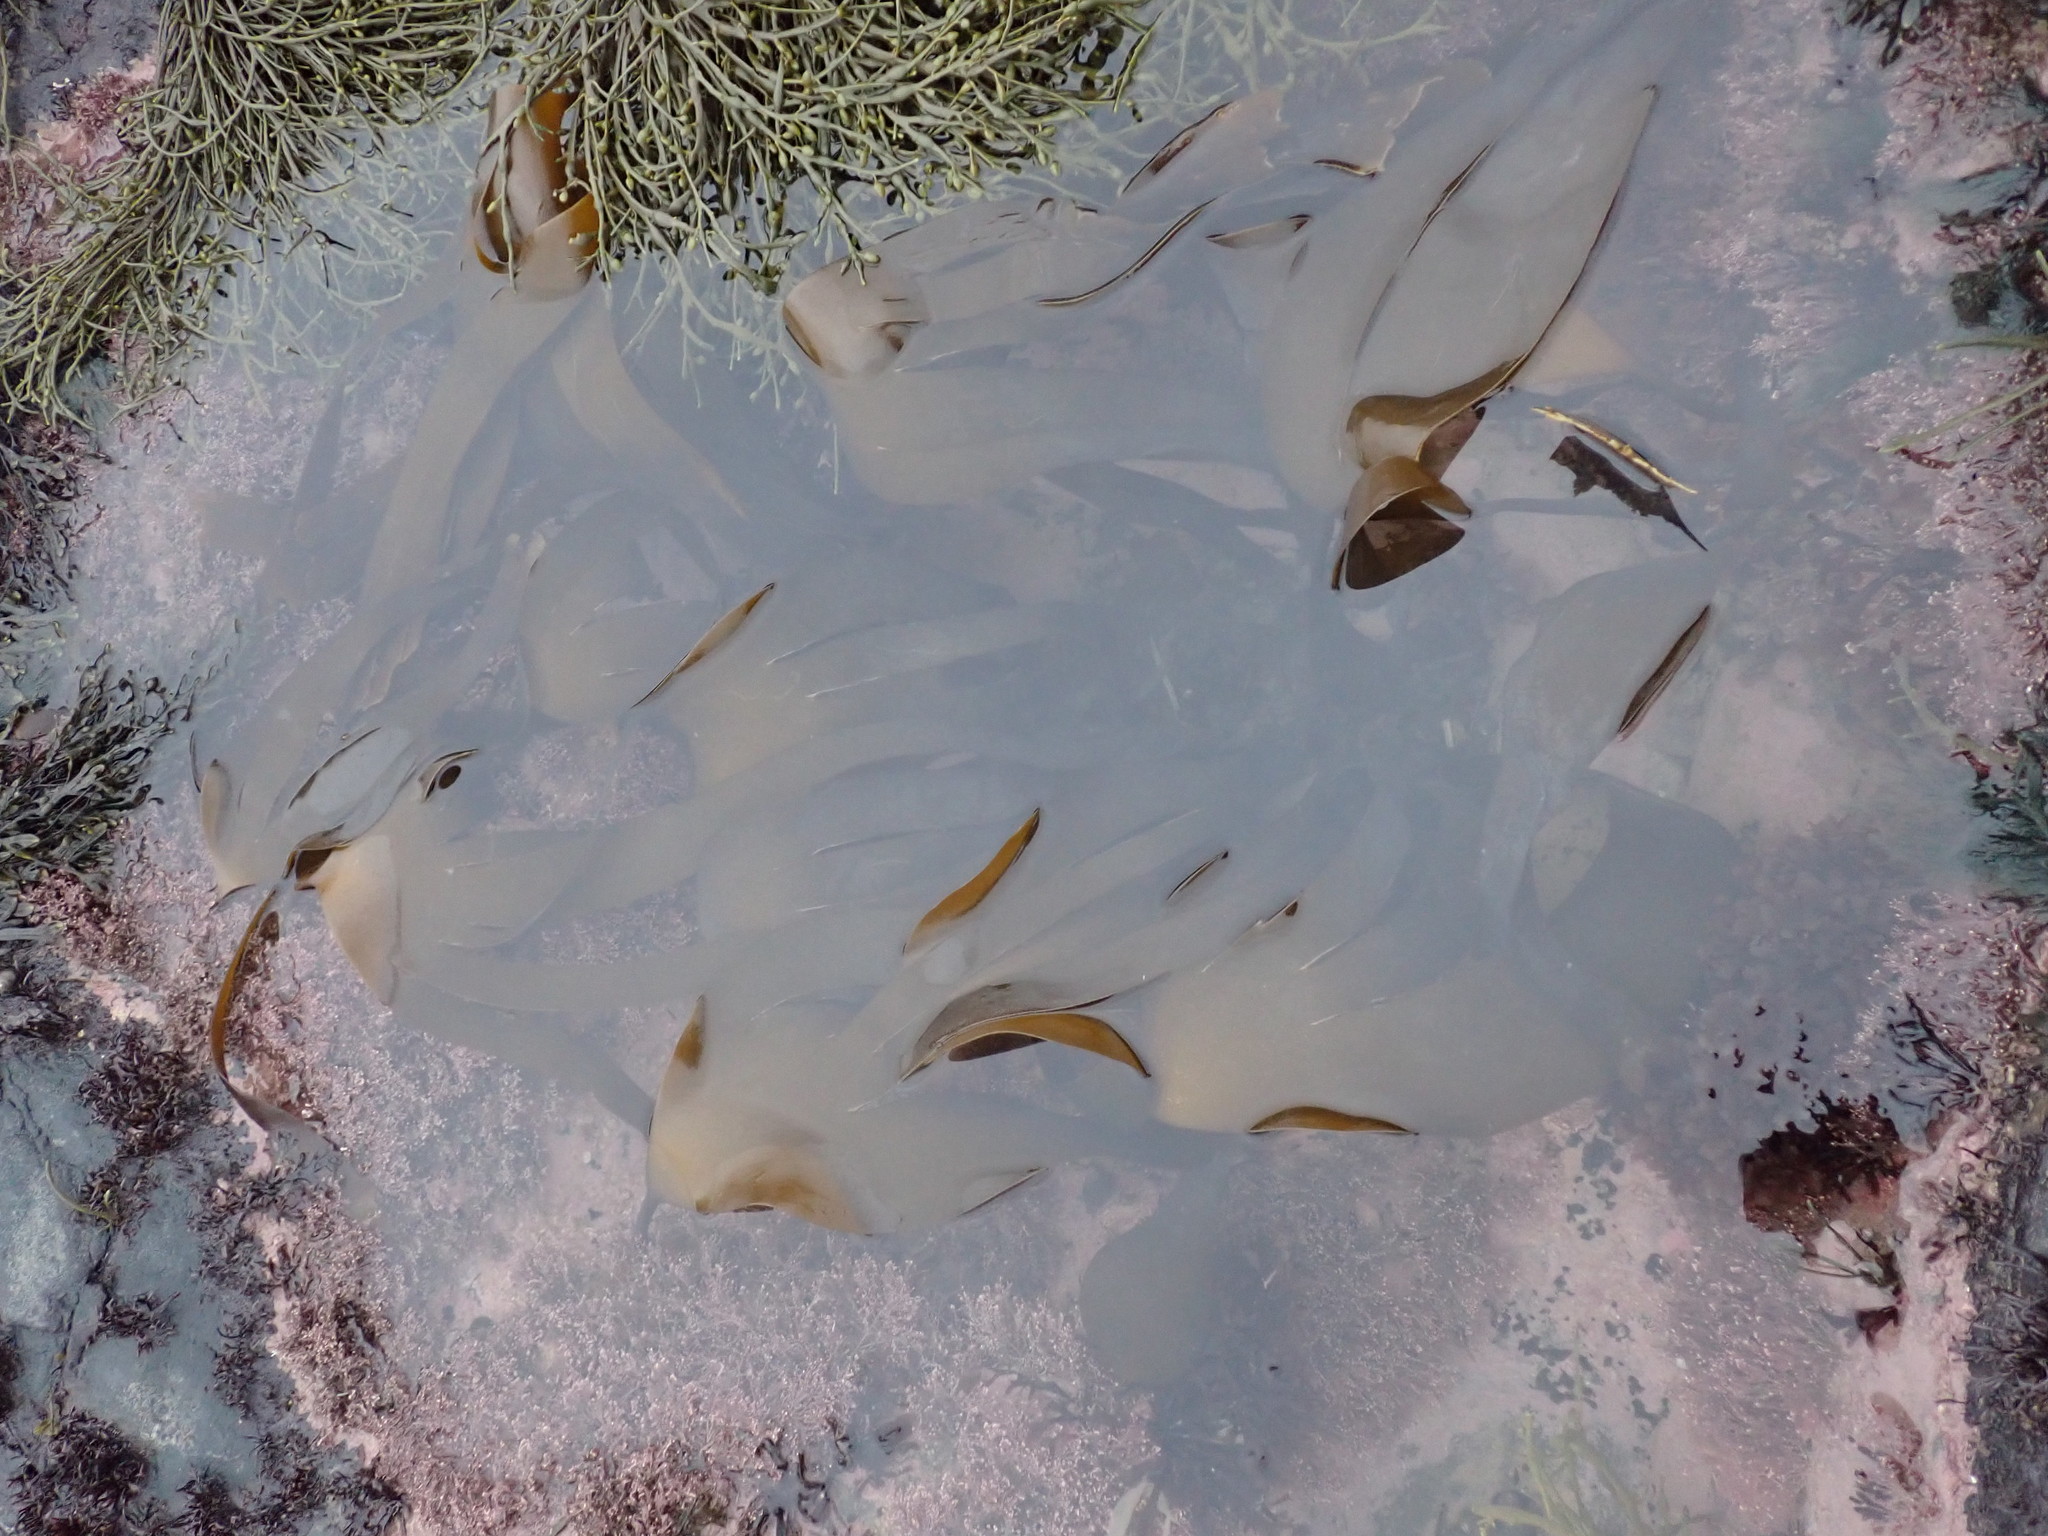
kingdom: Chromista
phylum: Ochrophyta
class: Phaeophyceae
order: Laminariales
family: Laminariaceae
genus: Laminaria
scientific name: Laminaria digitata
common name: Oarweed
